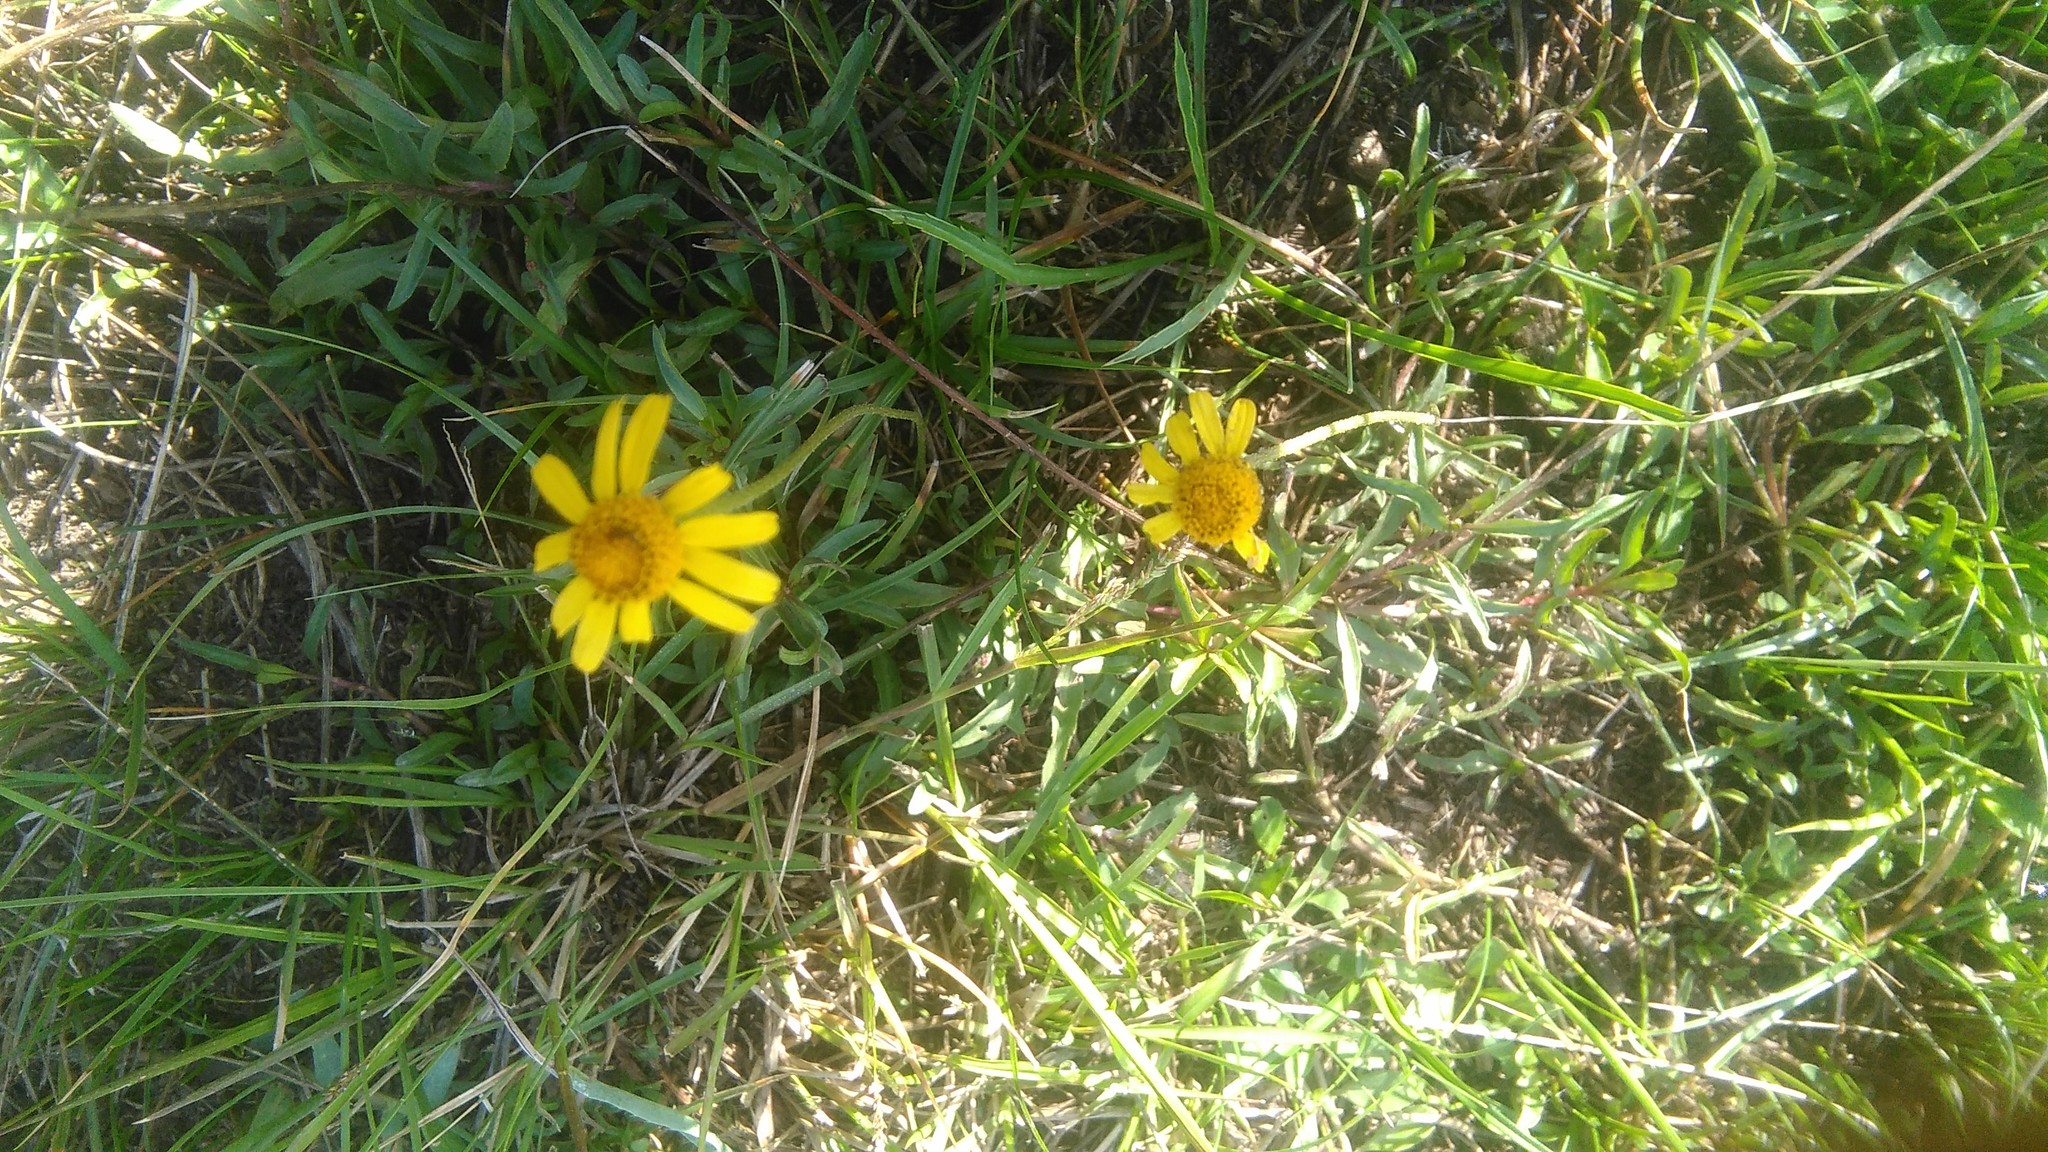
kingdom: Plantae
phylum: Tracheophyta
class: Magnoliopsida
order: Asterales
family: Asteraceae
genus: Acmella
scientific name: Acmella decumbens
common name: Creeping spotflower
